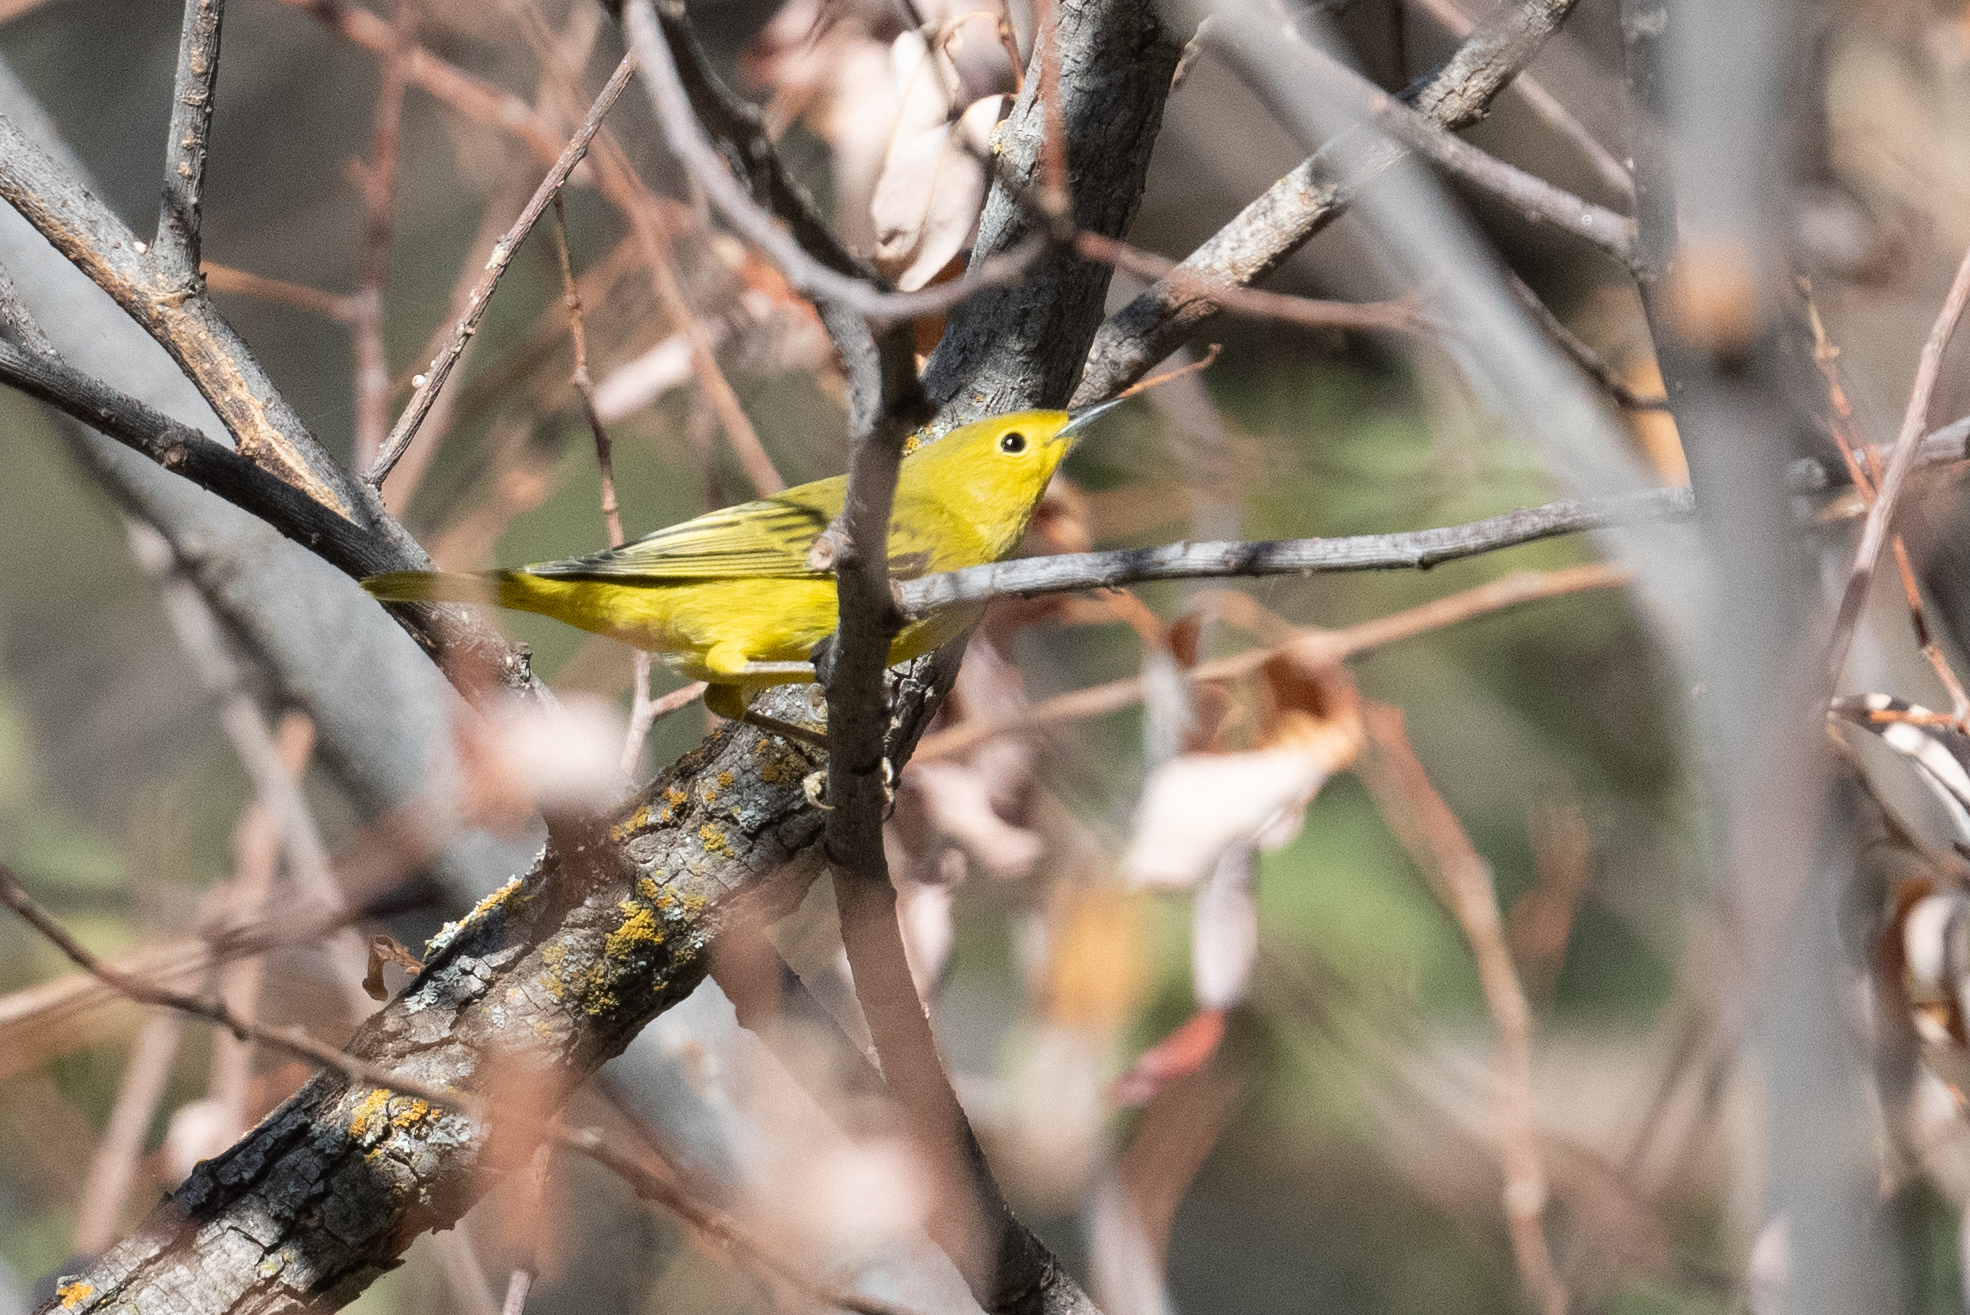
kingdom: Animalia
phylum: Chordata
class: Aves
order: Passeriformes
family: Parulidae
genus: Setophaga
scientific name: Setophaga petechia
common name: Yellow warbler
